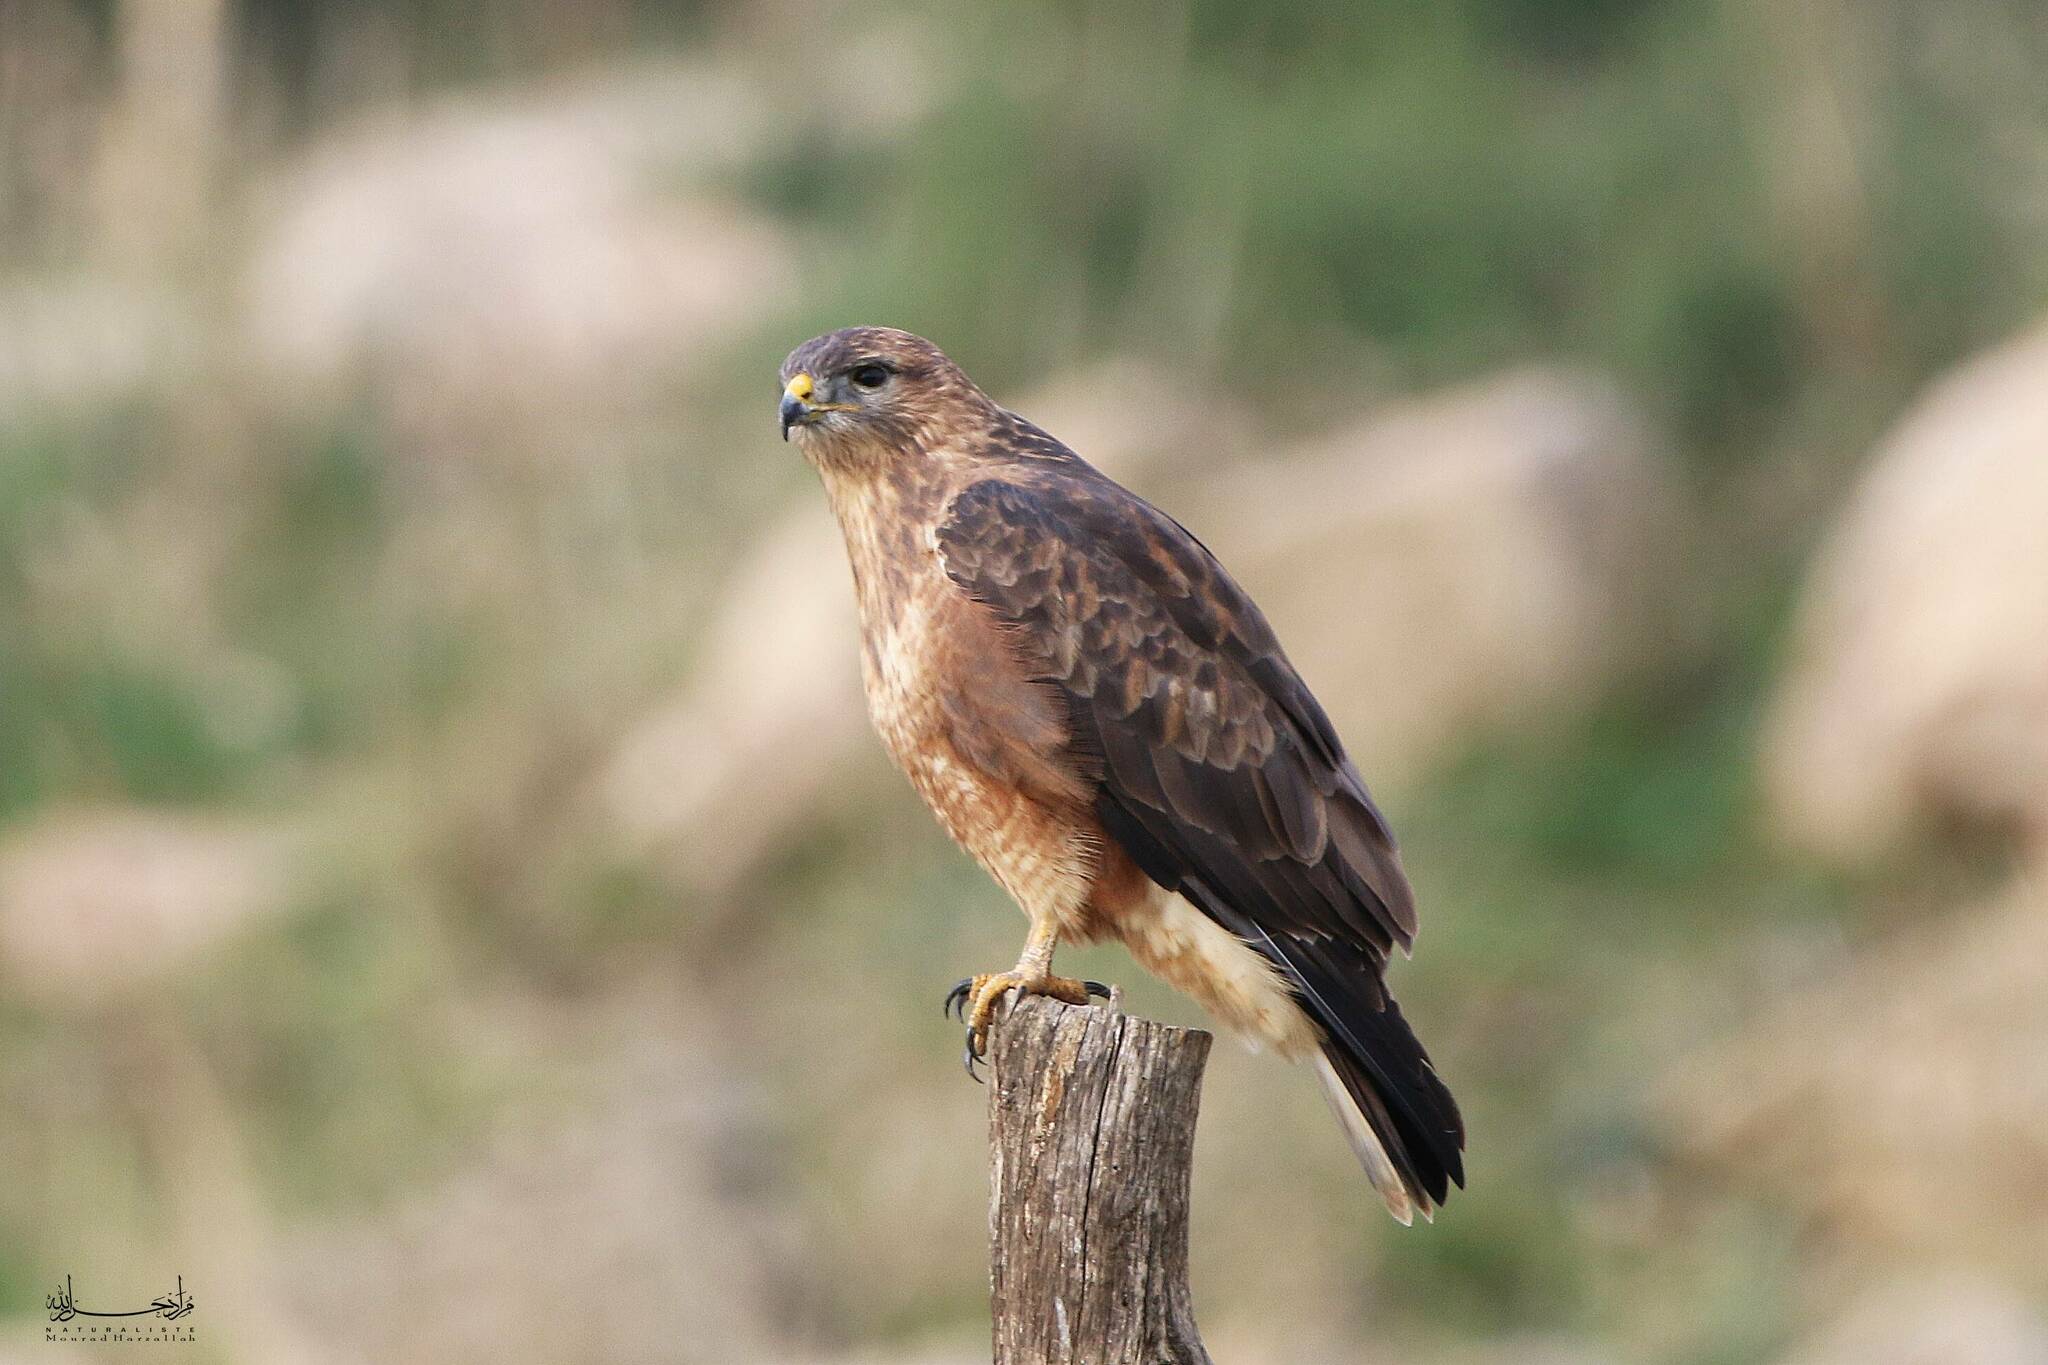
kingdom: Animalia
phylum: Chordata
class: Aves
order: Accipitriformes
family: Accipitridae
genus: Buteo
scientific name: Buteo buteo
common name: Common buzzard
